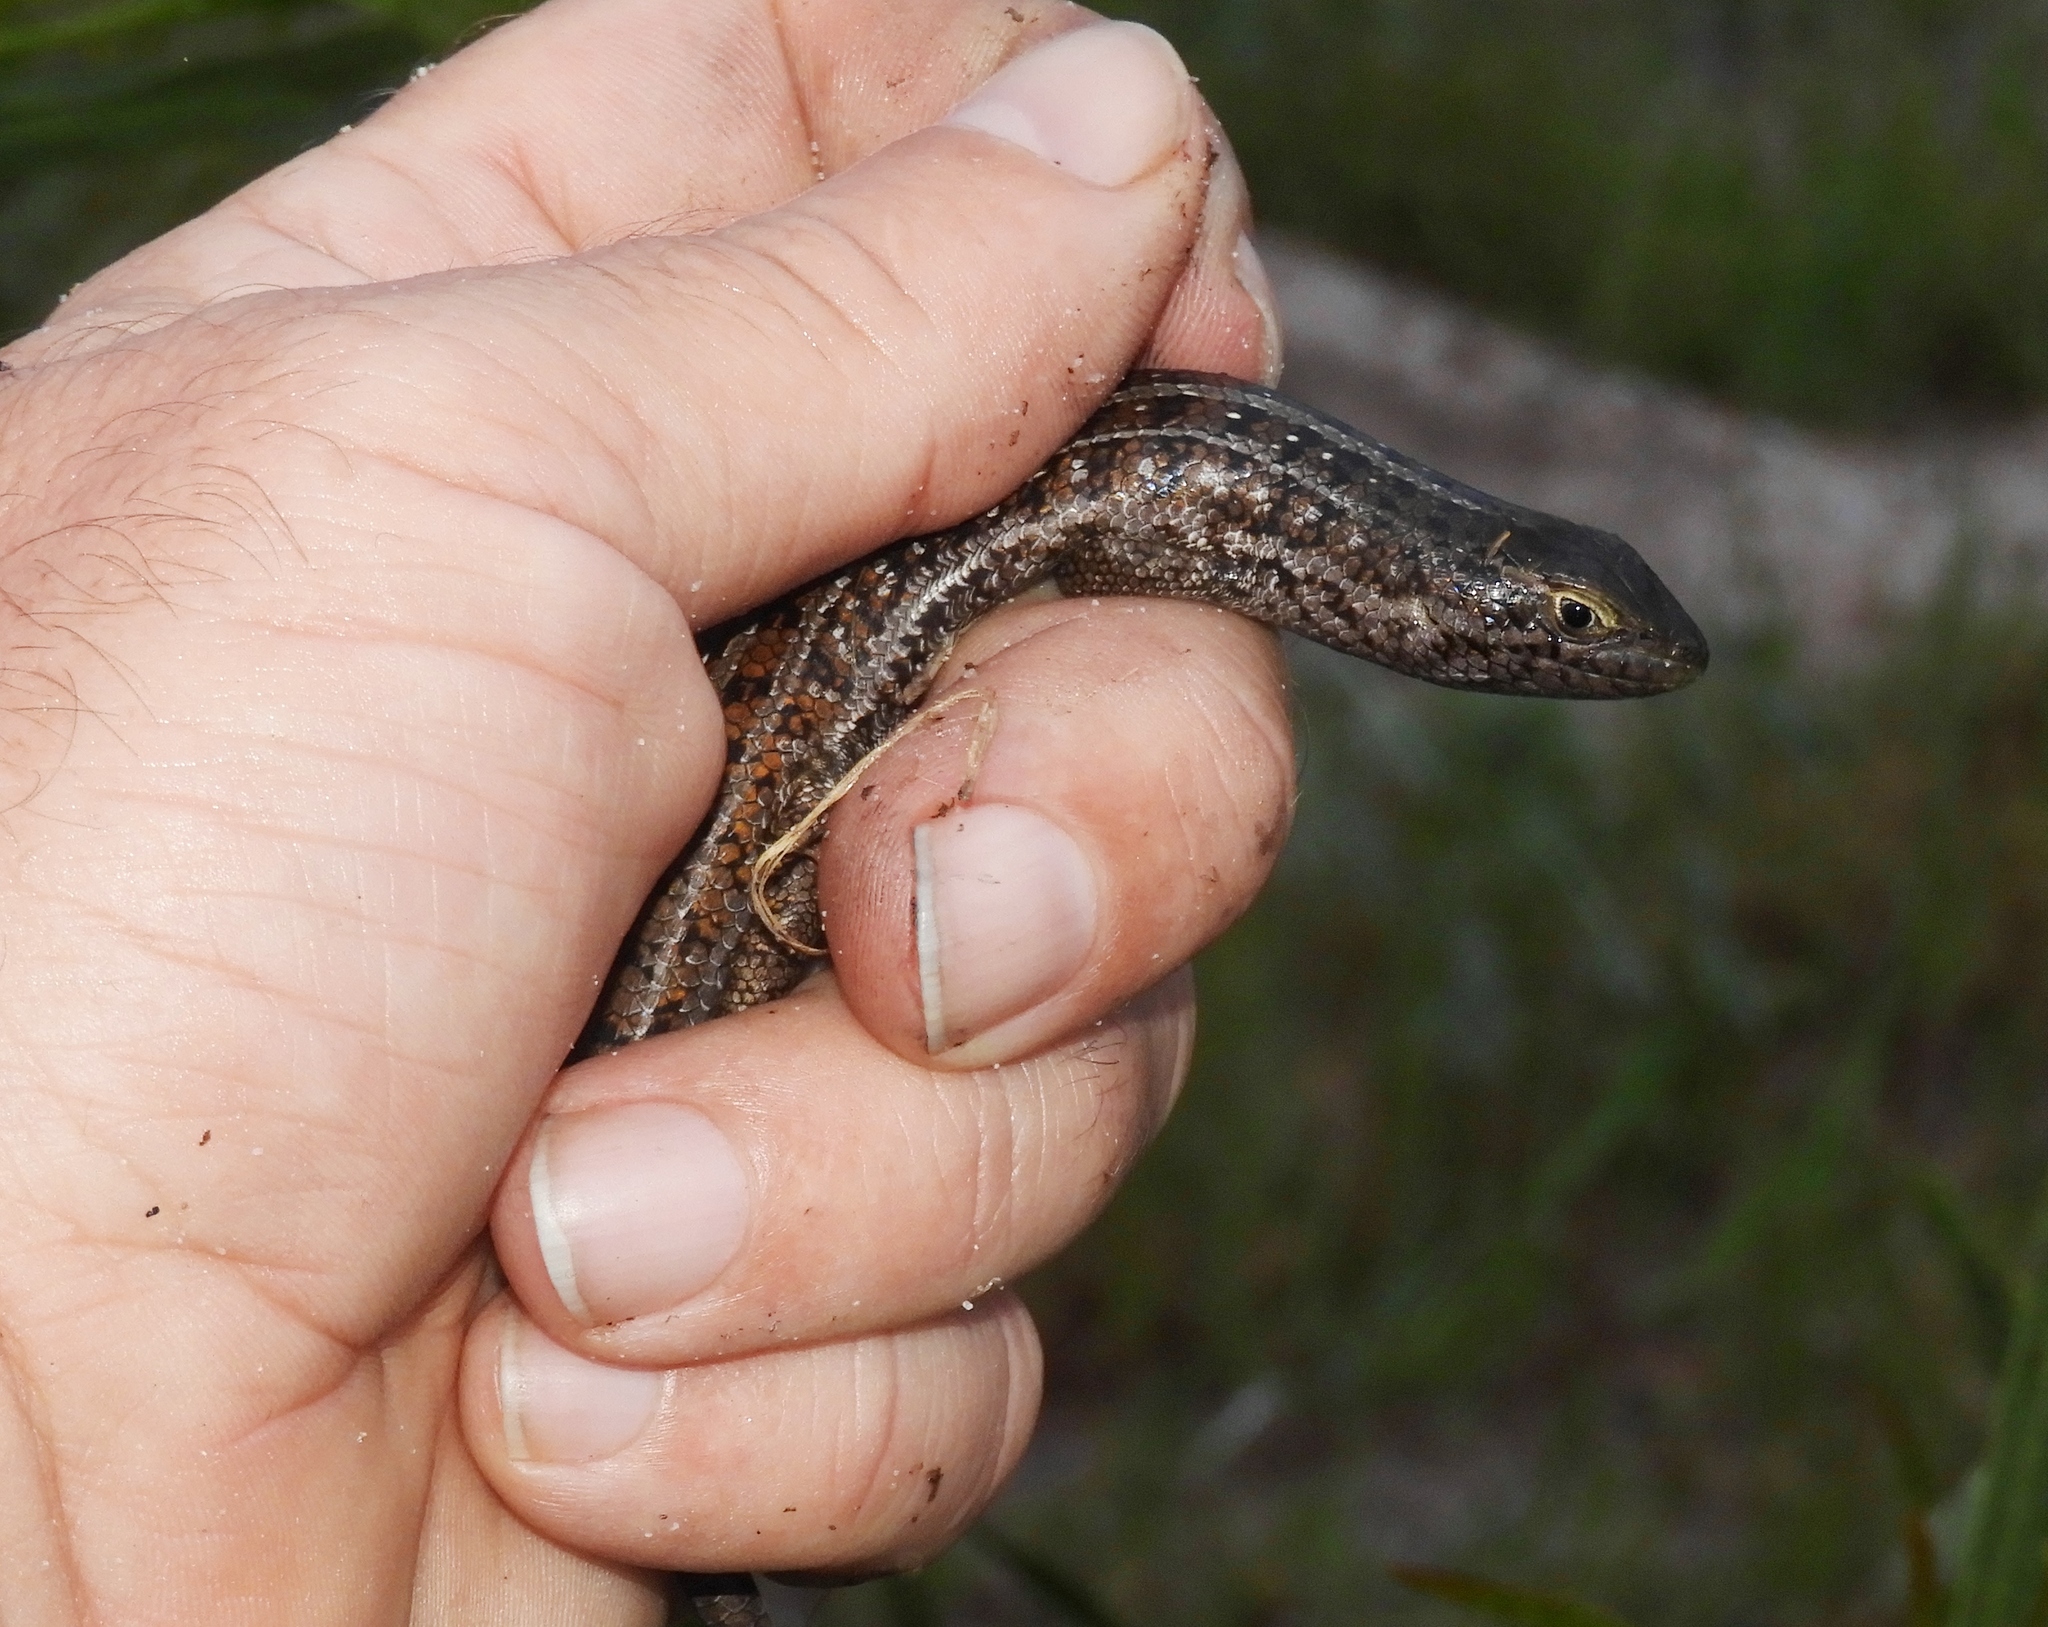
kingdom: Animalia
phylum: Chordata
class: Squamata
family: Scincidae
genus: Trachylepis
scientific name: Trachylepis capensis
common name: Cape skink
